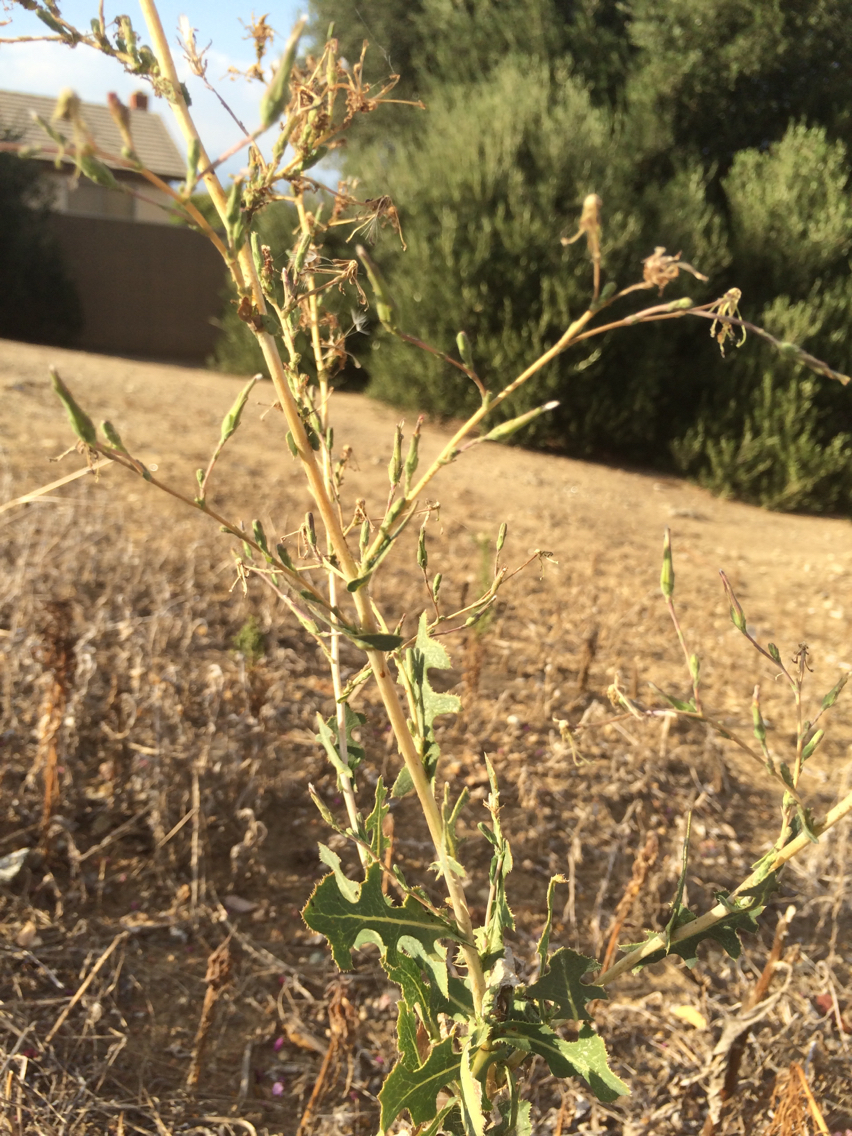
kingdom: Plantae
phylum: Tracheophyta
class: Magnoliopsida
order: Asterales
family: Asteraceae
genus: Lactuca
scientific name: Lactuca serriola
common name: Prickly lettuce
